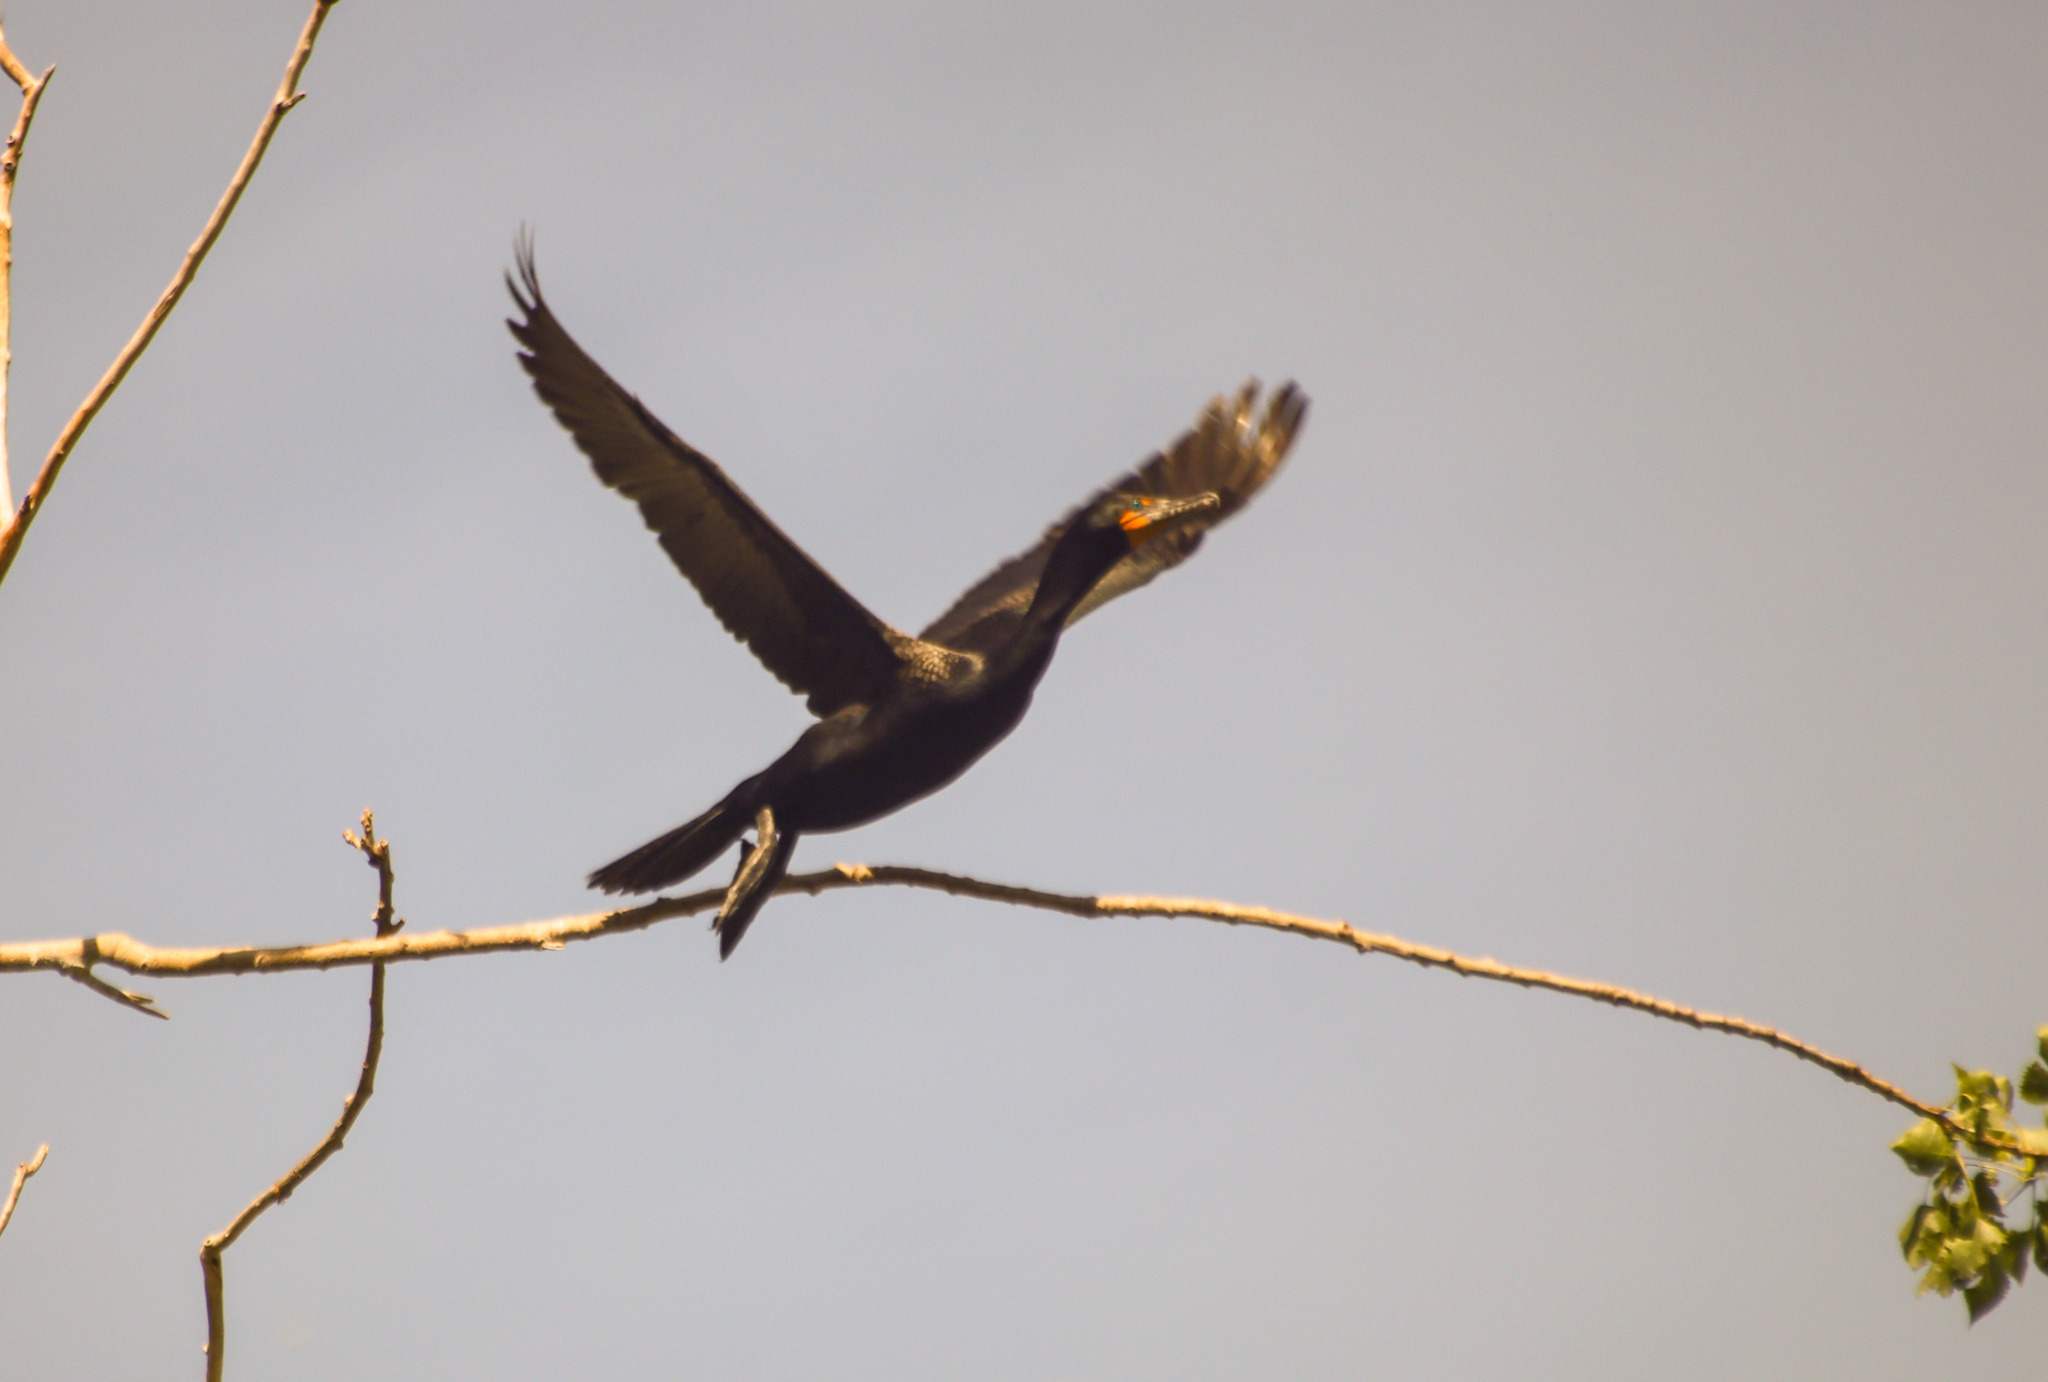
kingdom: Animalia
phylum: Chordata
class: Aves
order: Suliformes
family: Phalacrocoracidae
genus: Phalacrocorax
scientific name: Phalacrocorax auritus
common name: Double-crested cormorant
